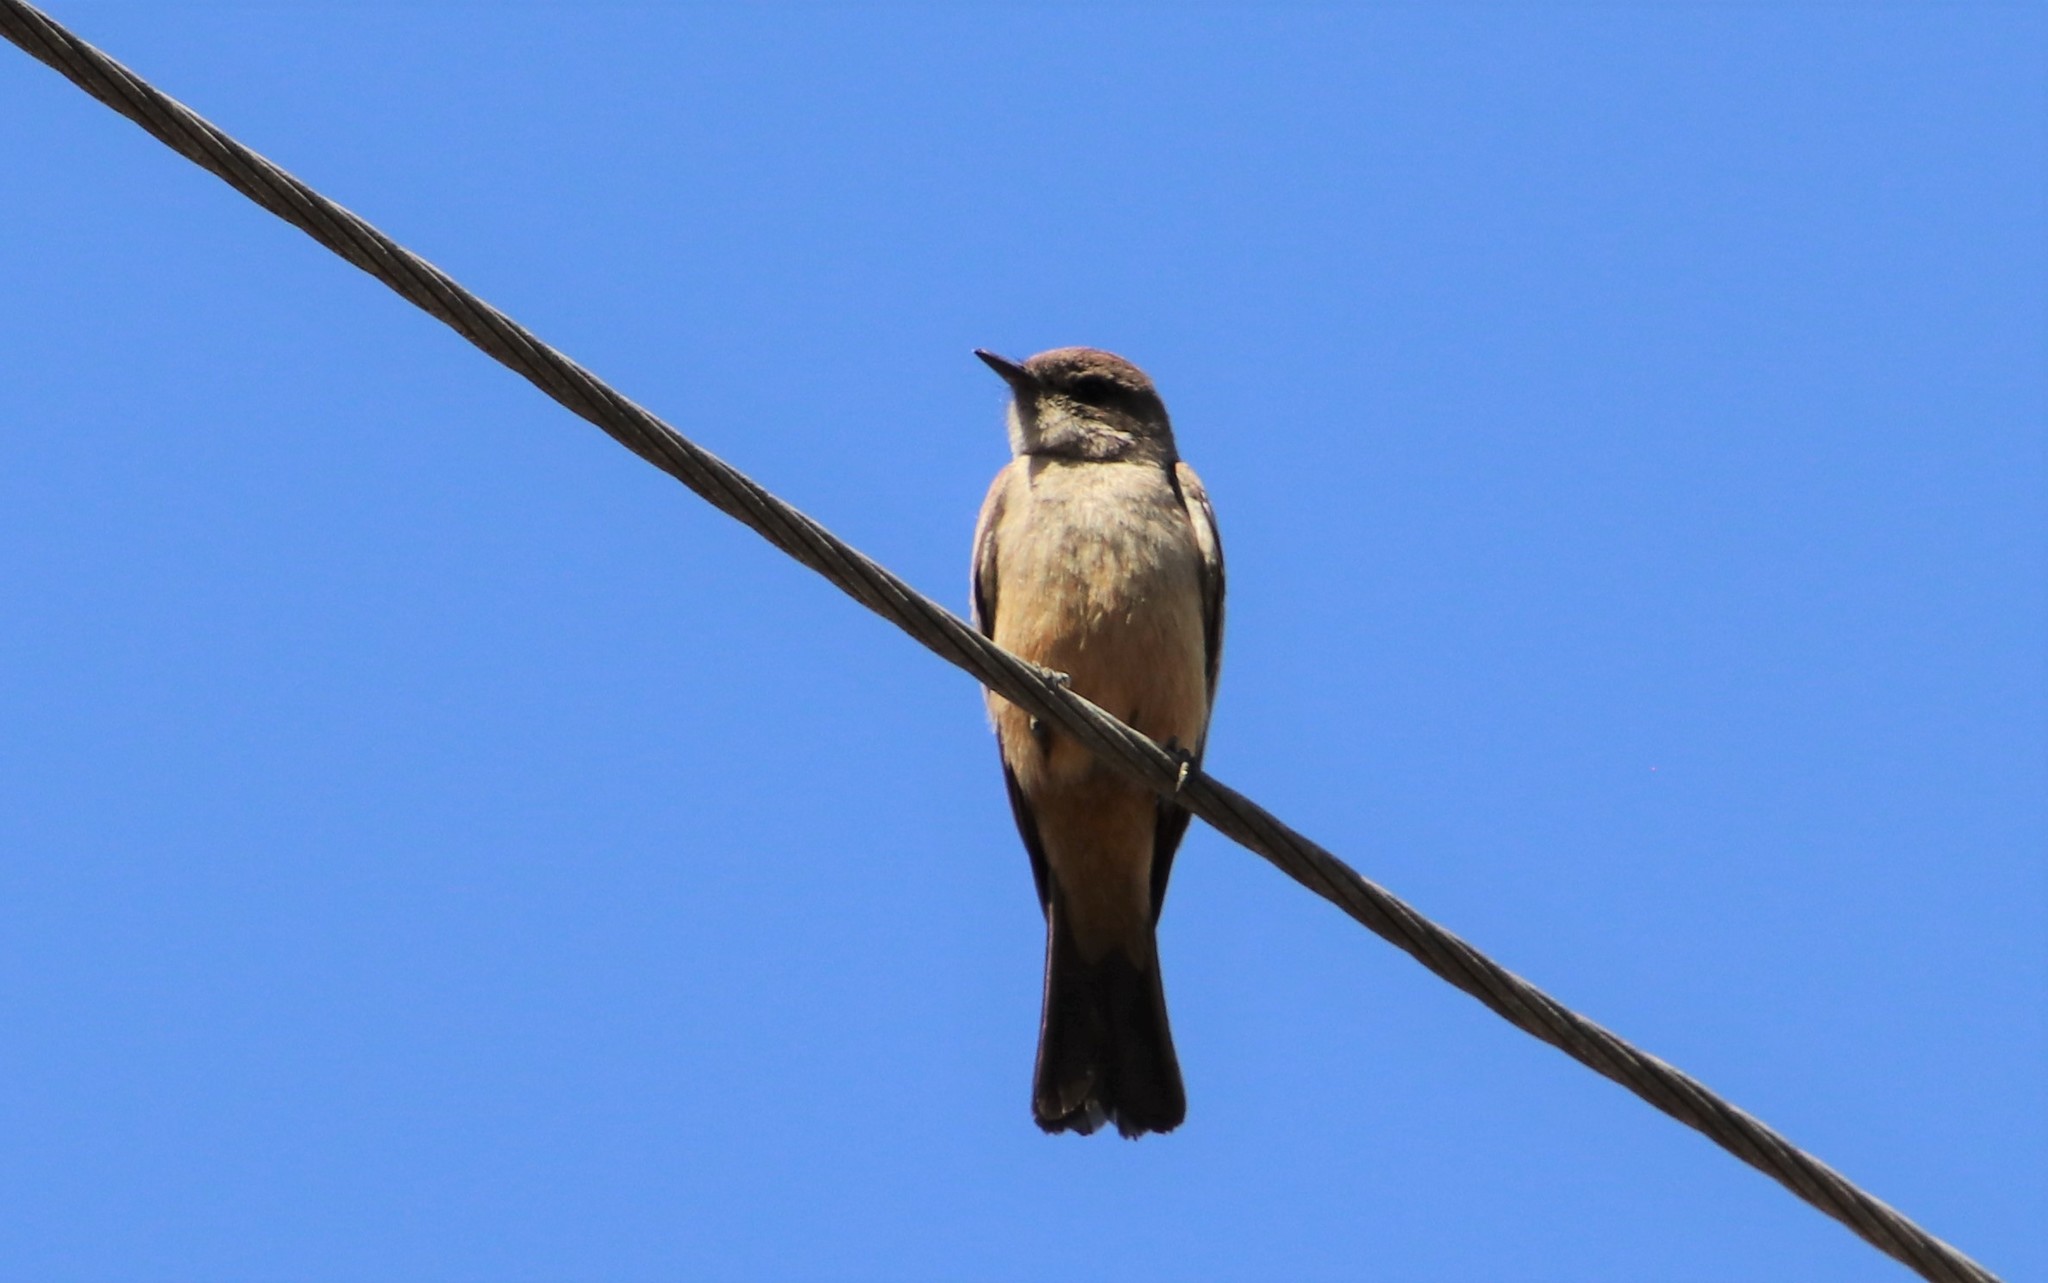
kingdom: Animalia
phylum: Chordata
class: Aves
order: Passeriformes
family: Tyrannidae
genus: Sayornis
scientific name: Sayornis saya
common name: Say's phoebe
